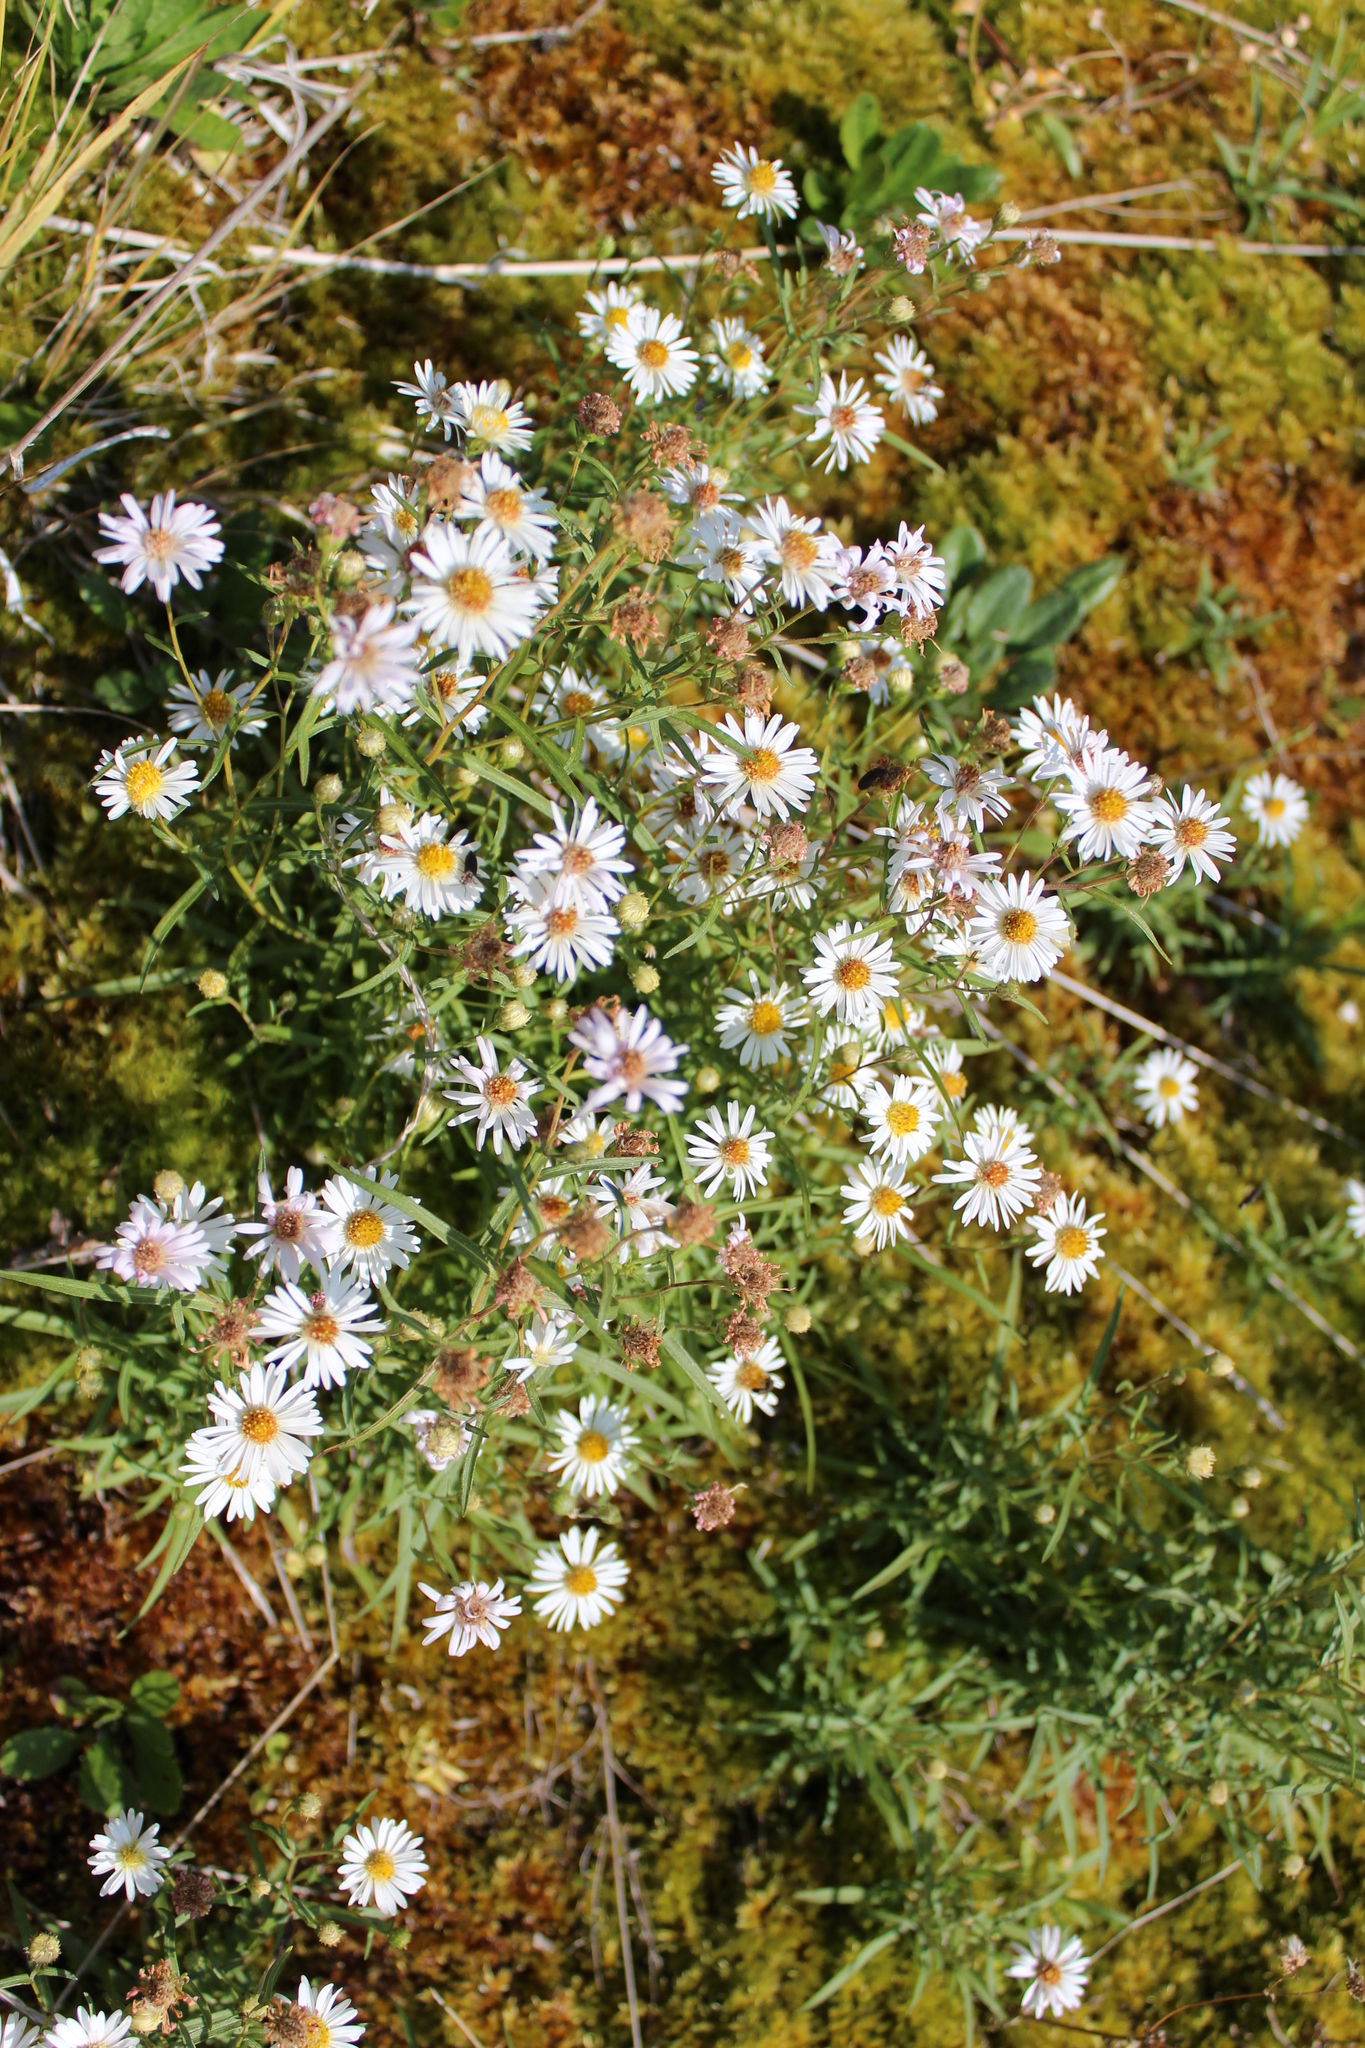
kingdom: Plantae
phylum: Tracheophyta
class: Magnoliopsida
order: Asterales
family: Asteraceae
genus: Symphyotrichum
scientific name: Symphyotrichum nahanniense
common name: Nahanni aster
